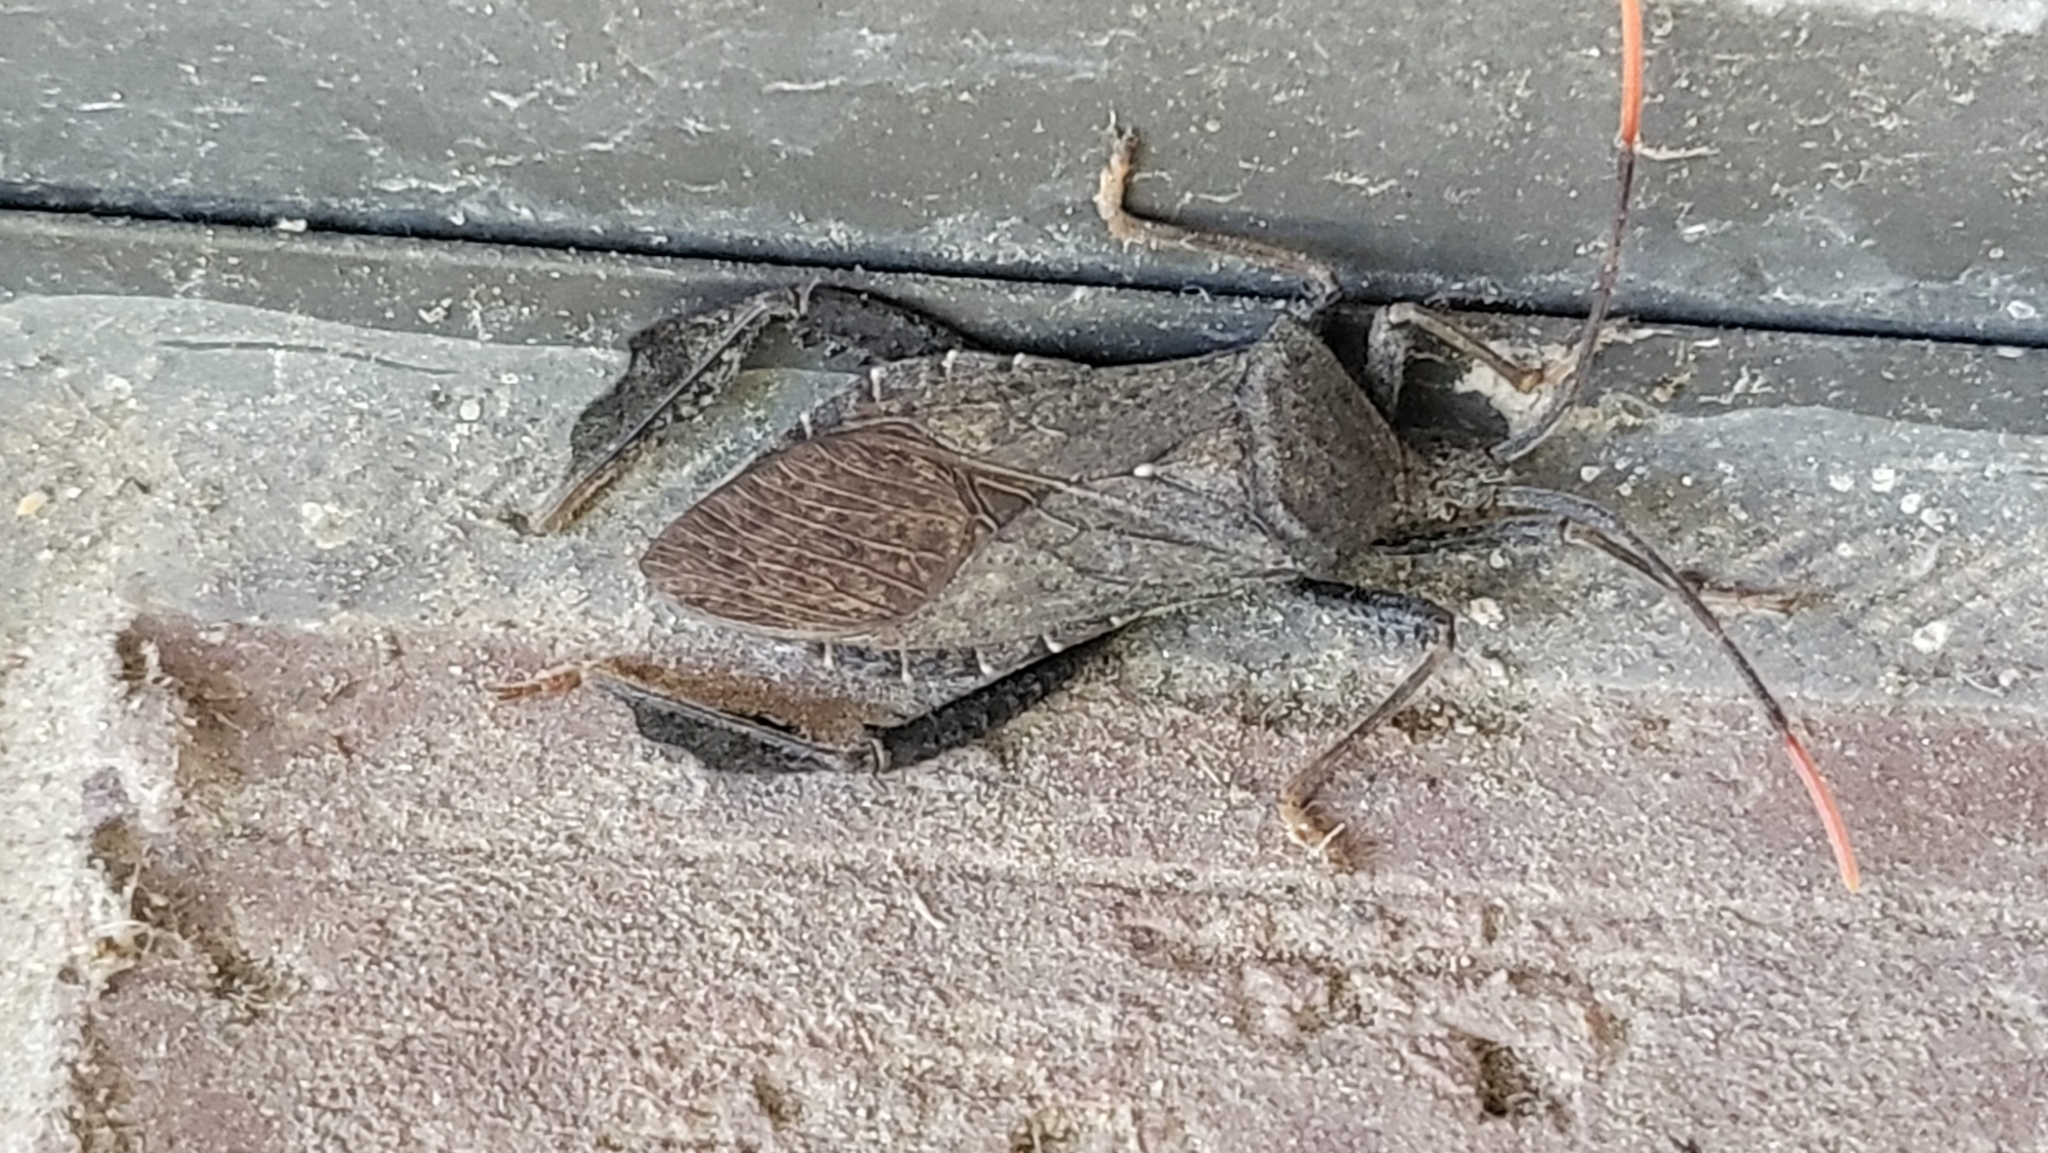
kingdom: Animalia
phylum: Arthropoda
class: Insecta
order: Hemiptera
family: Coreidae
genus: Acanthocephala
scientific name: Acanthocephala terminalis
